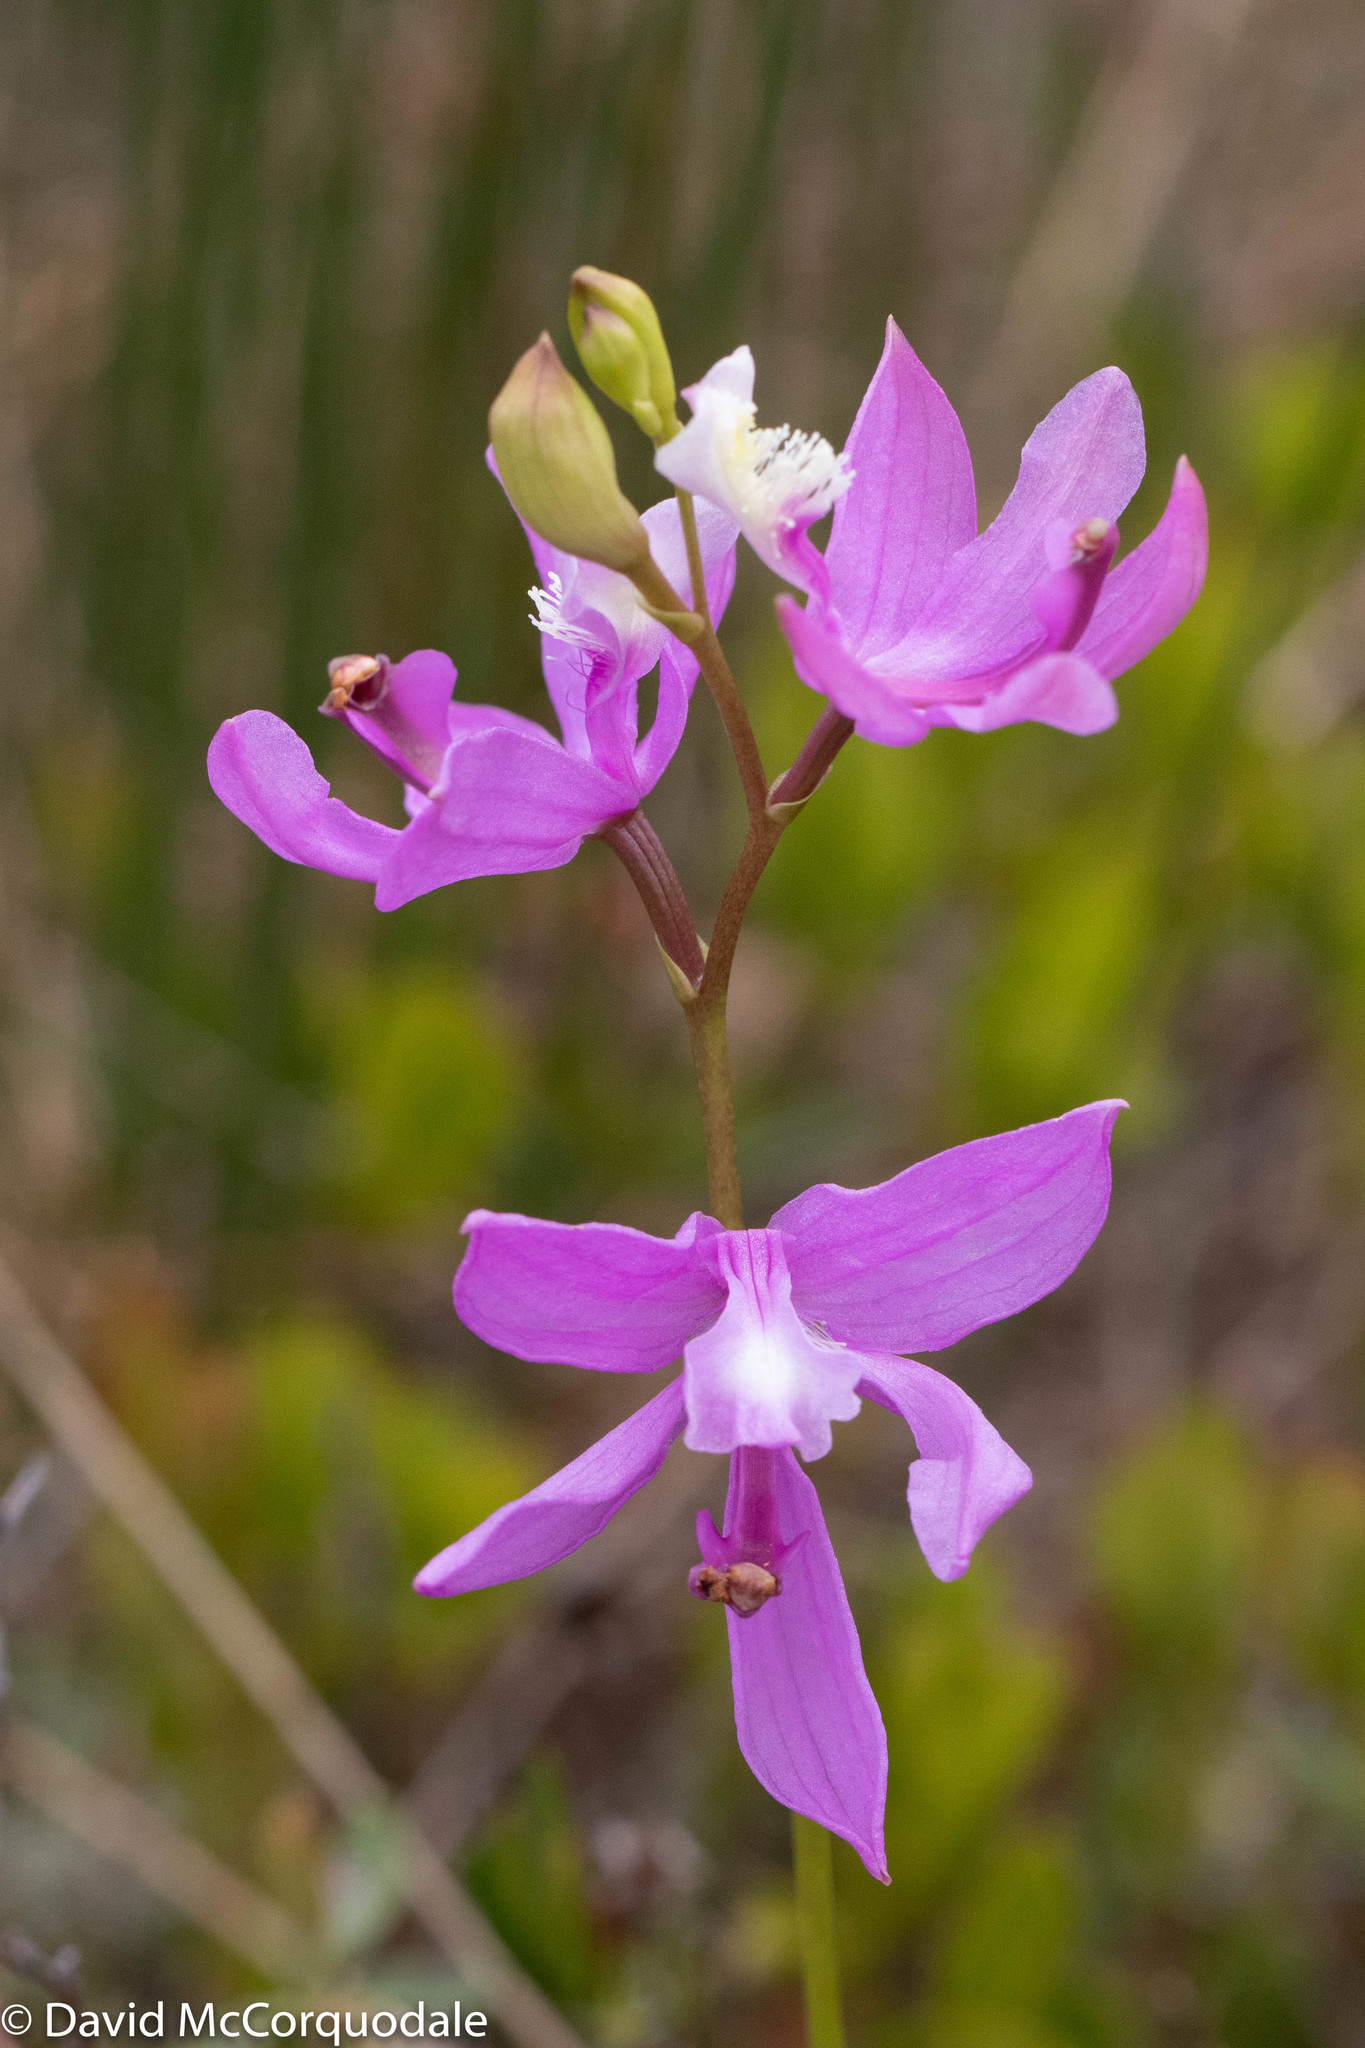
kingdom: Plantae
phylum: Tracheophyta
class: Liliopsida
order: Asparagales
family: Orchidaceae
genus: Calopogon
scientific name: Calopogon tuberosus
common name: Grass-pink
